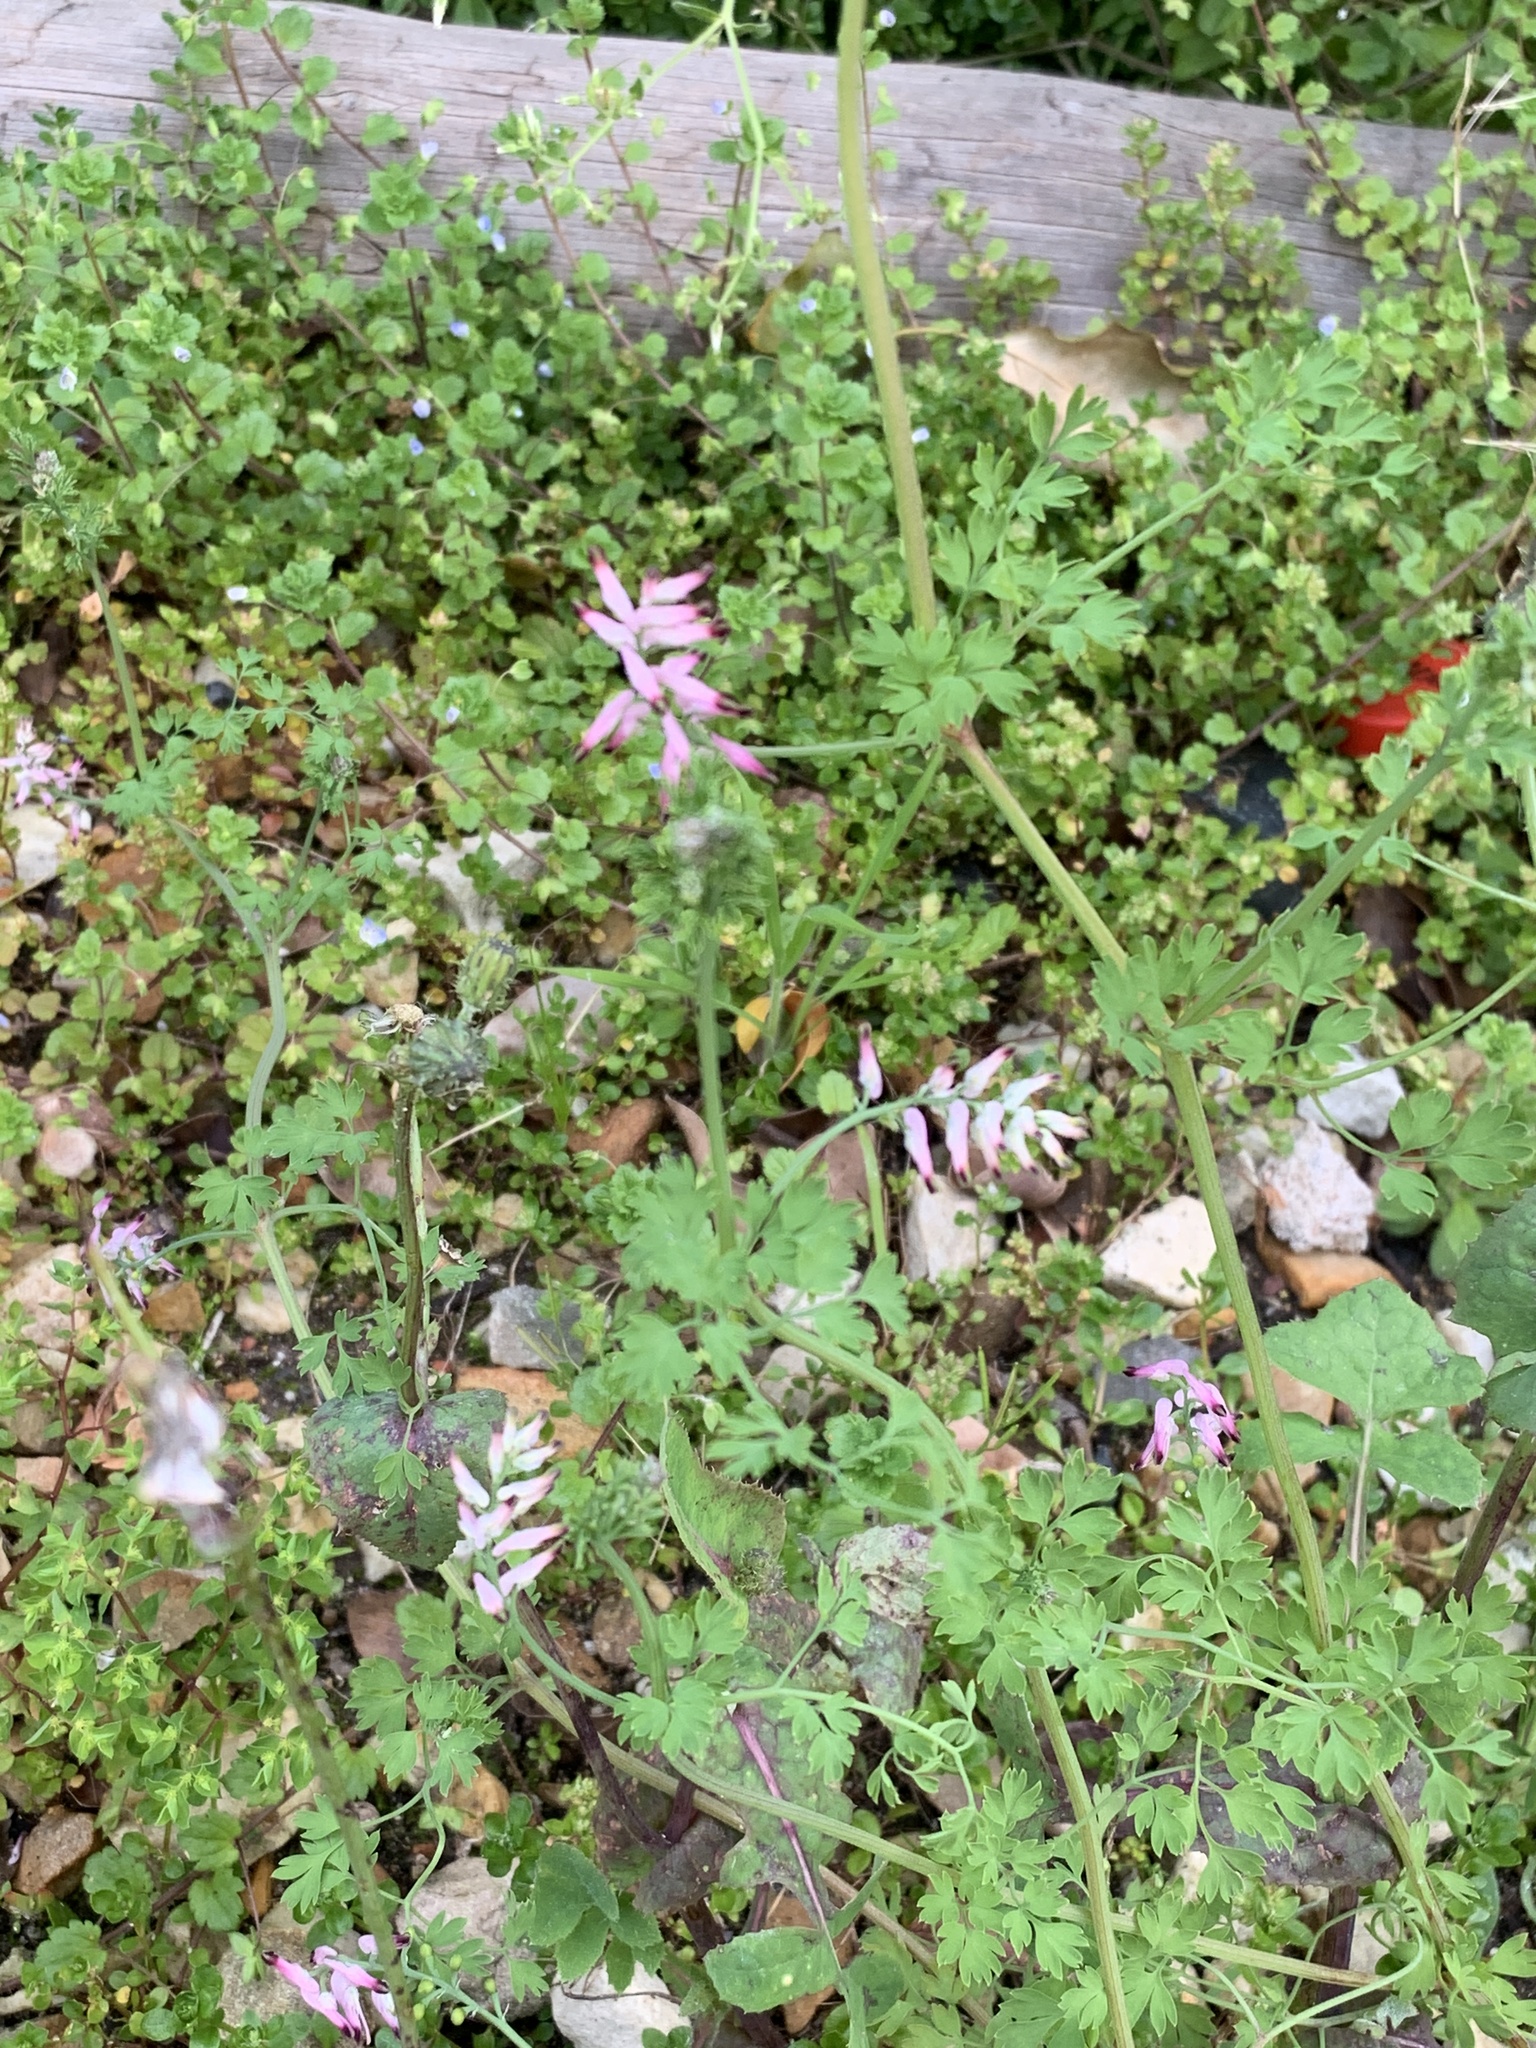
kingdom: Plantae
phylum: Tracheophyta
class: Magnoliopsida
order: Ranunculales
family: Papaveraceae
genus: Fumaria
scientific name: Fumaria muralis
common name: Common ramping-fumitory
